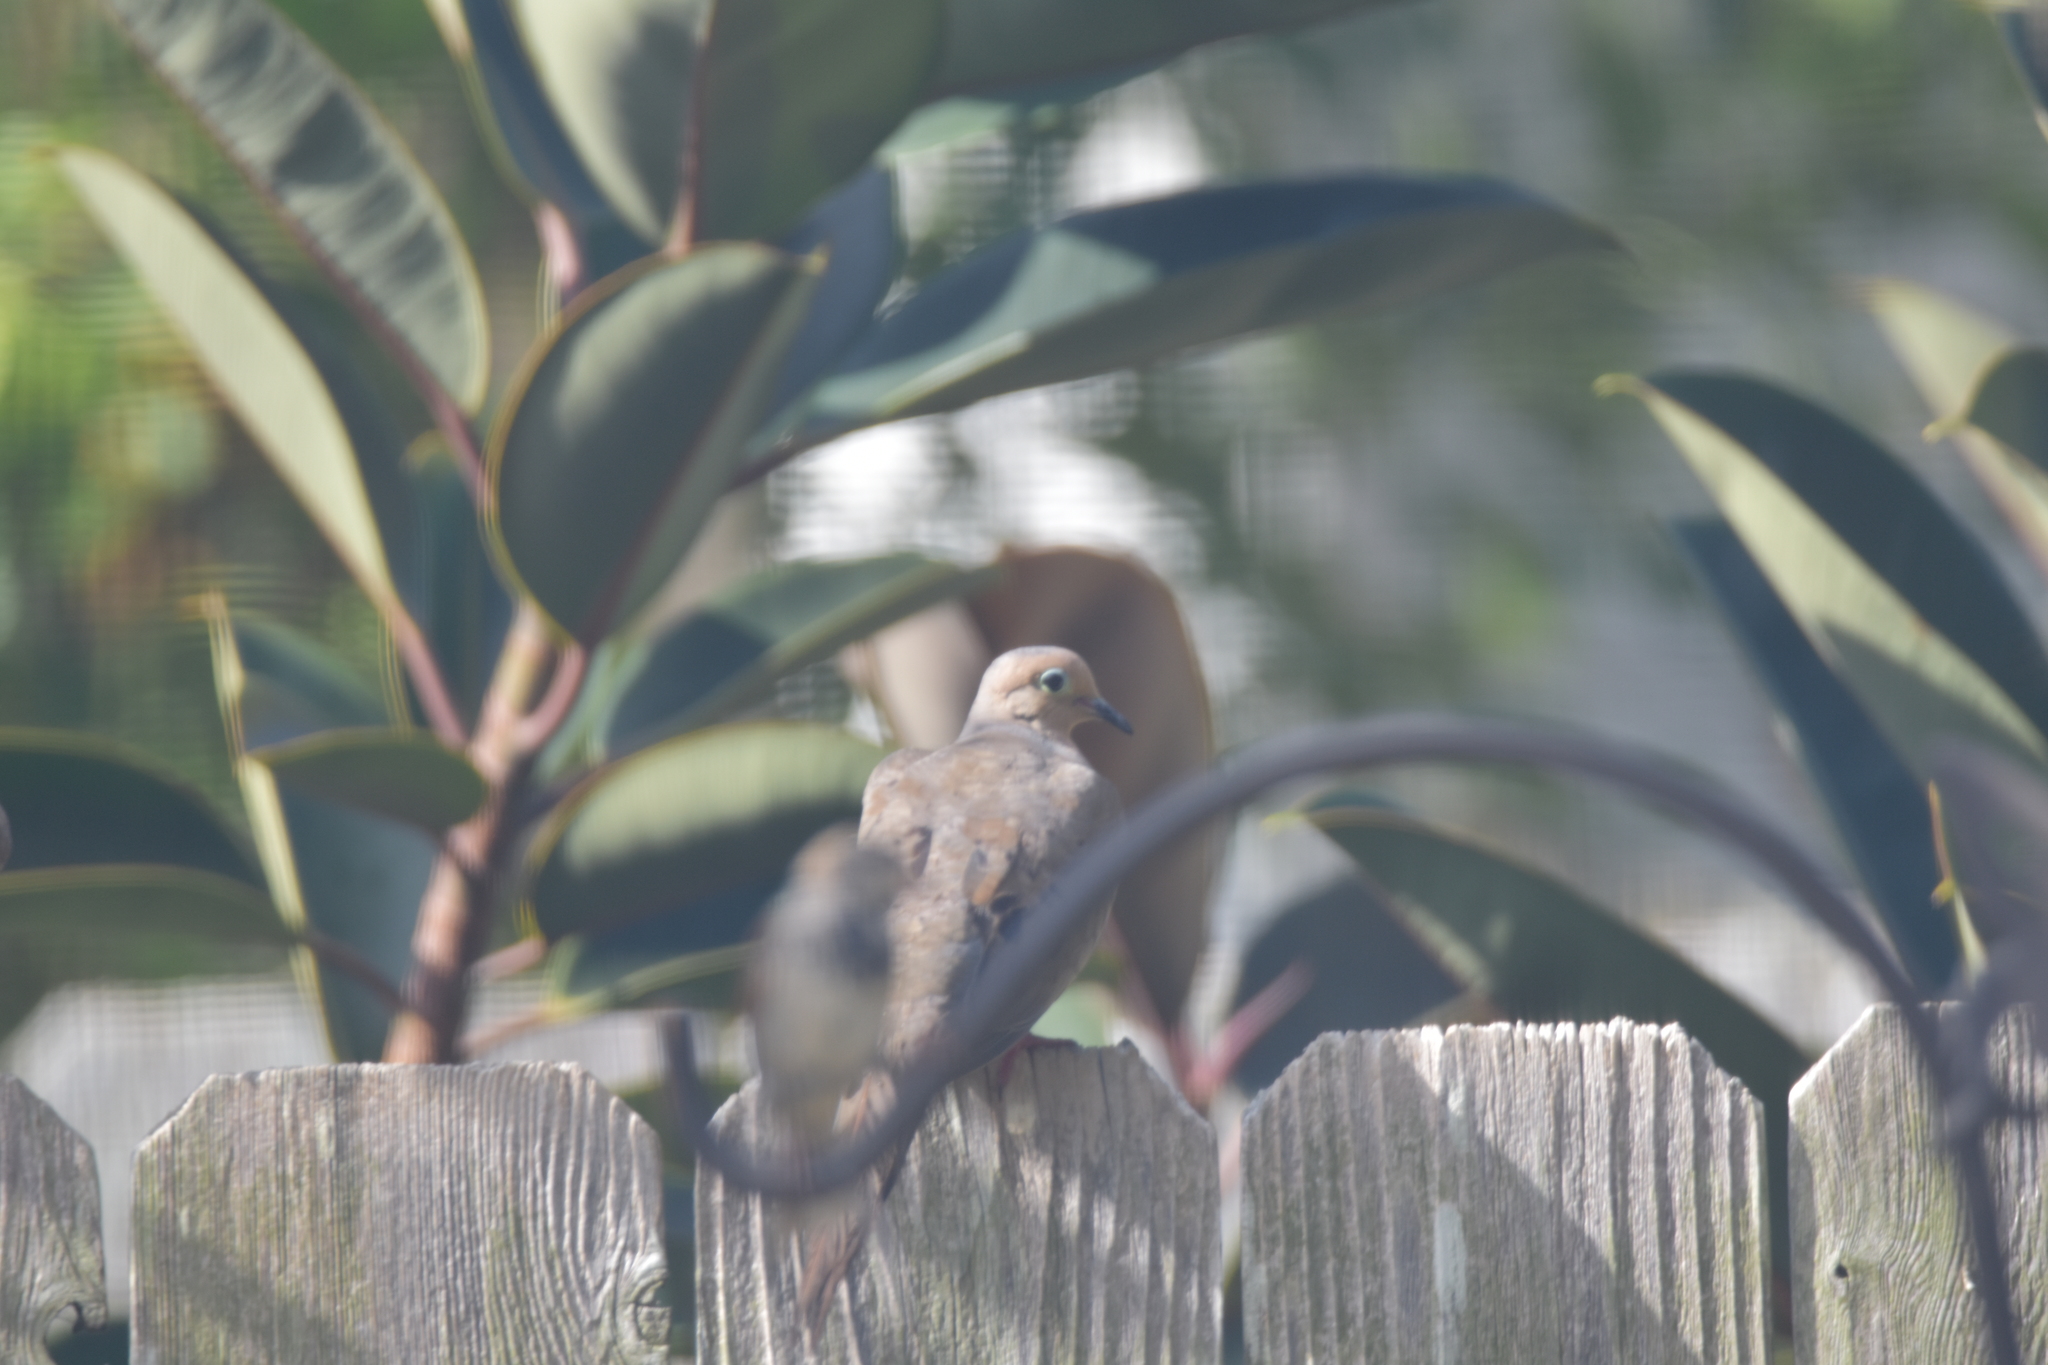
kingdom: Animalia
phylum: Chordata
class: Aves
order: Columbiformes
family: Columbidae
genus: Zenaida
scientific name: Zenaida macroura
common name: Mourning dove
